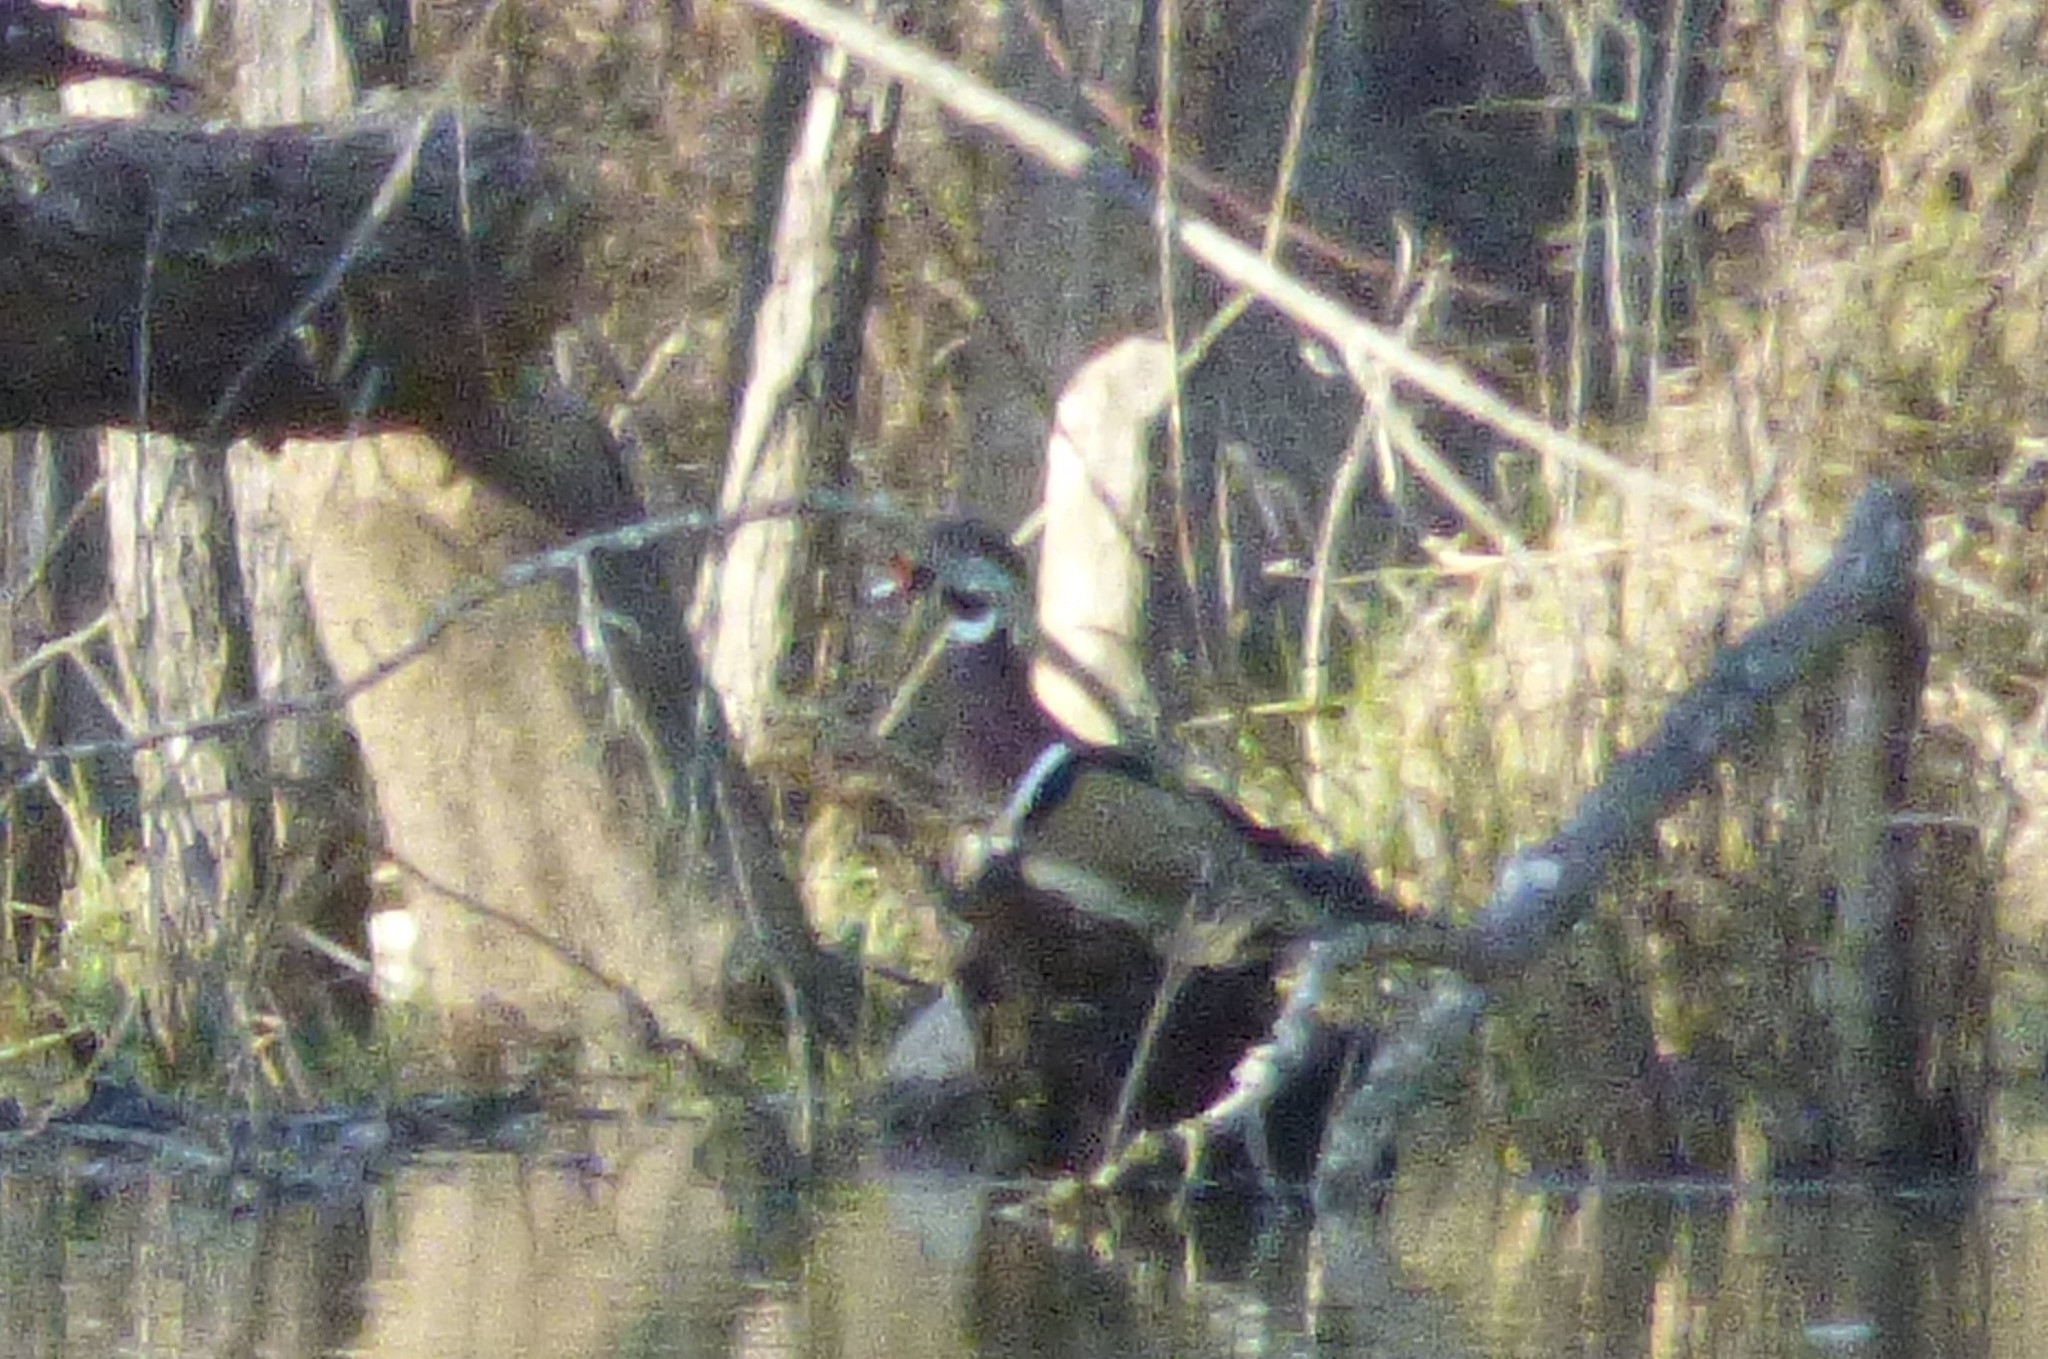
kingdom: Animalia
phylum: Chordata
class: Aves
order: Anseriformes
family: Anatidae
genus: Aix
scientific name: Aix sponsa
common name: Wood duck
